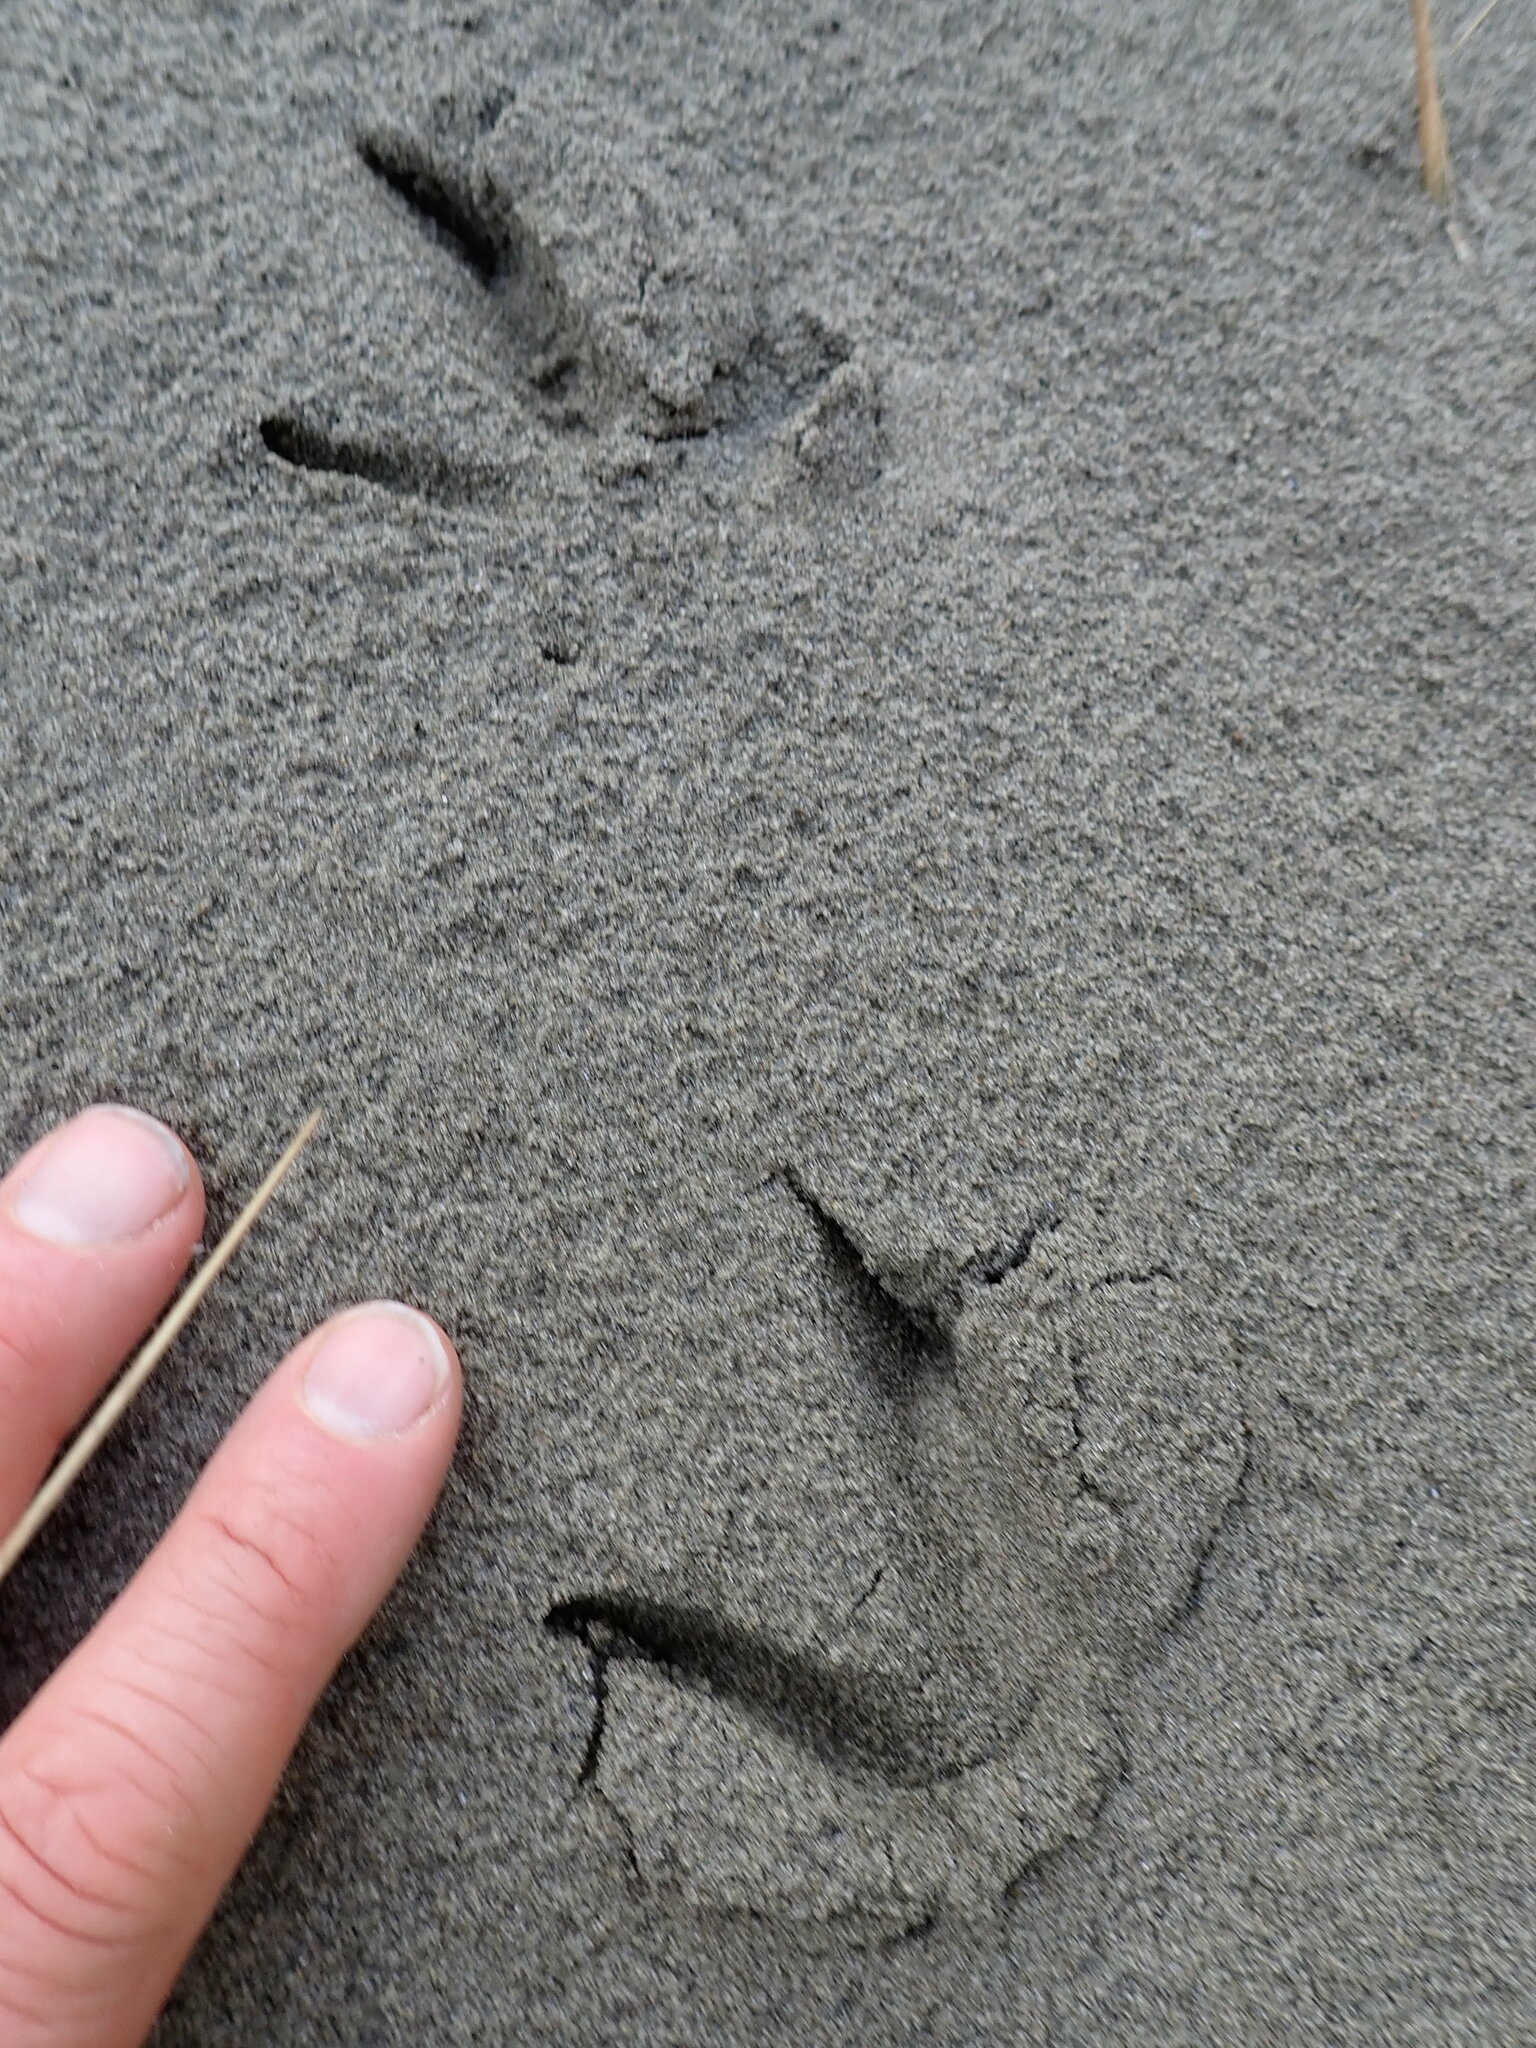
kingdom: Animalia
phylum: Chordata
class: Aves
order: Galliformes
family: Phasianidae
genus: Phasianus
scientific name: Phasianus colchicus
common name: Common pheasant
